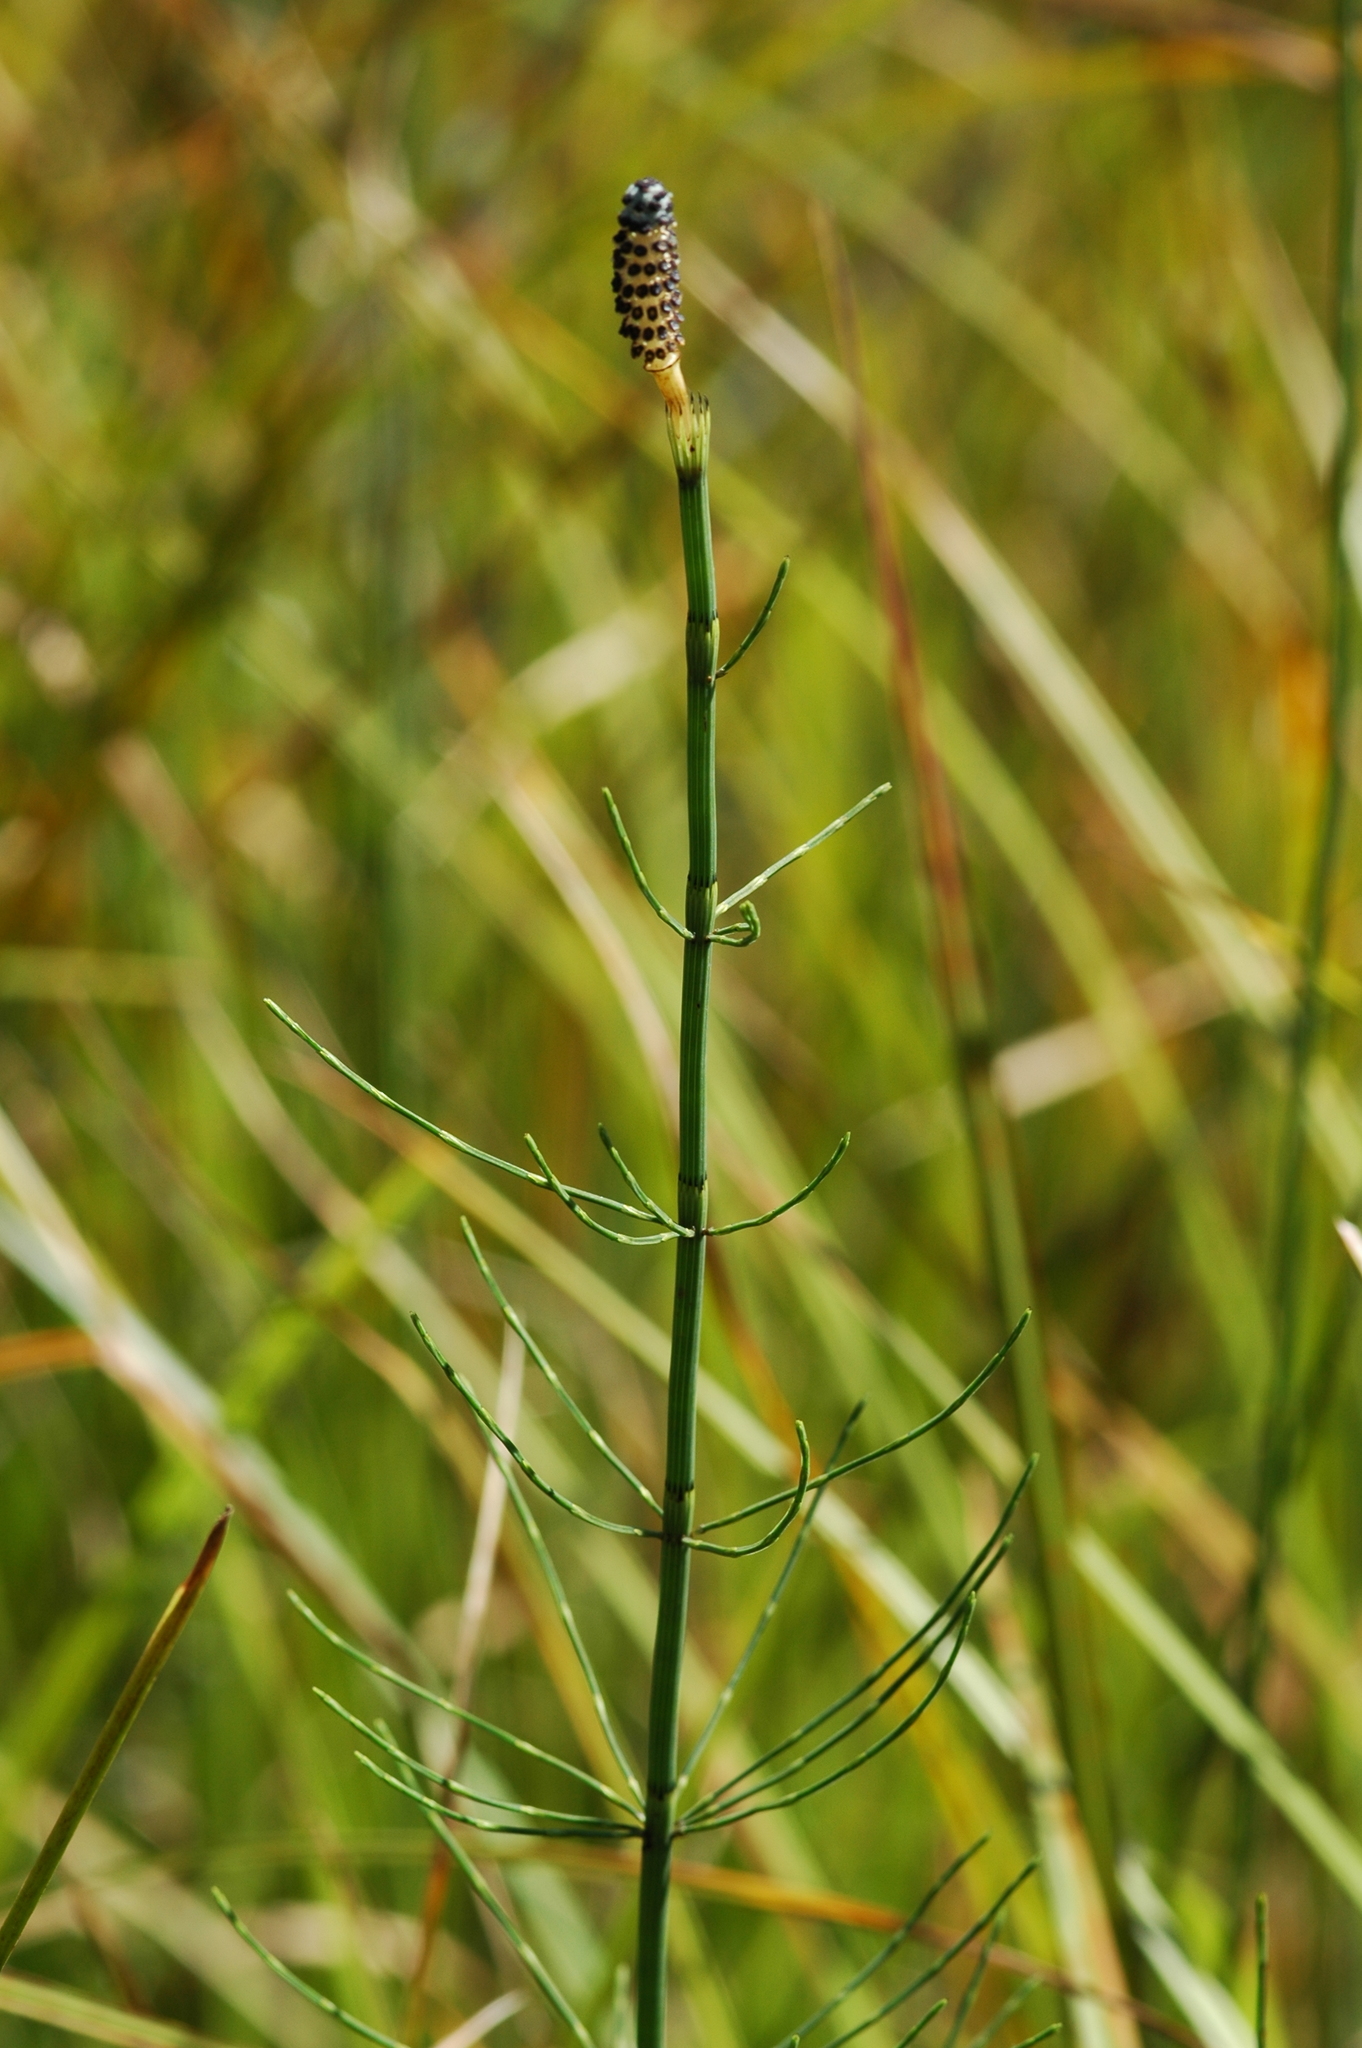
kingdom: Plantae
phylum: Tracheophyta
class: Polypodiopsida
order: Equisetales
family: Equisetaceae
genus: Equisetum
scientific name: Equisetum fluviatile
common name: Water horsetail
